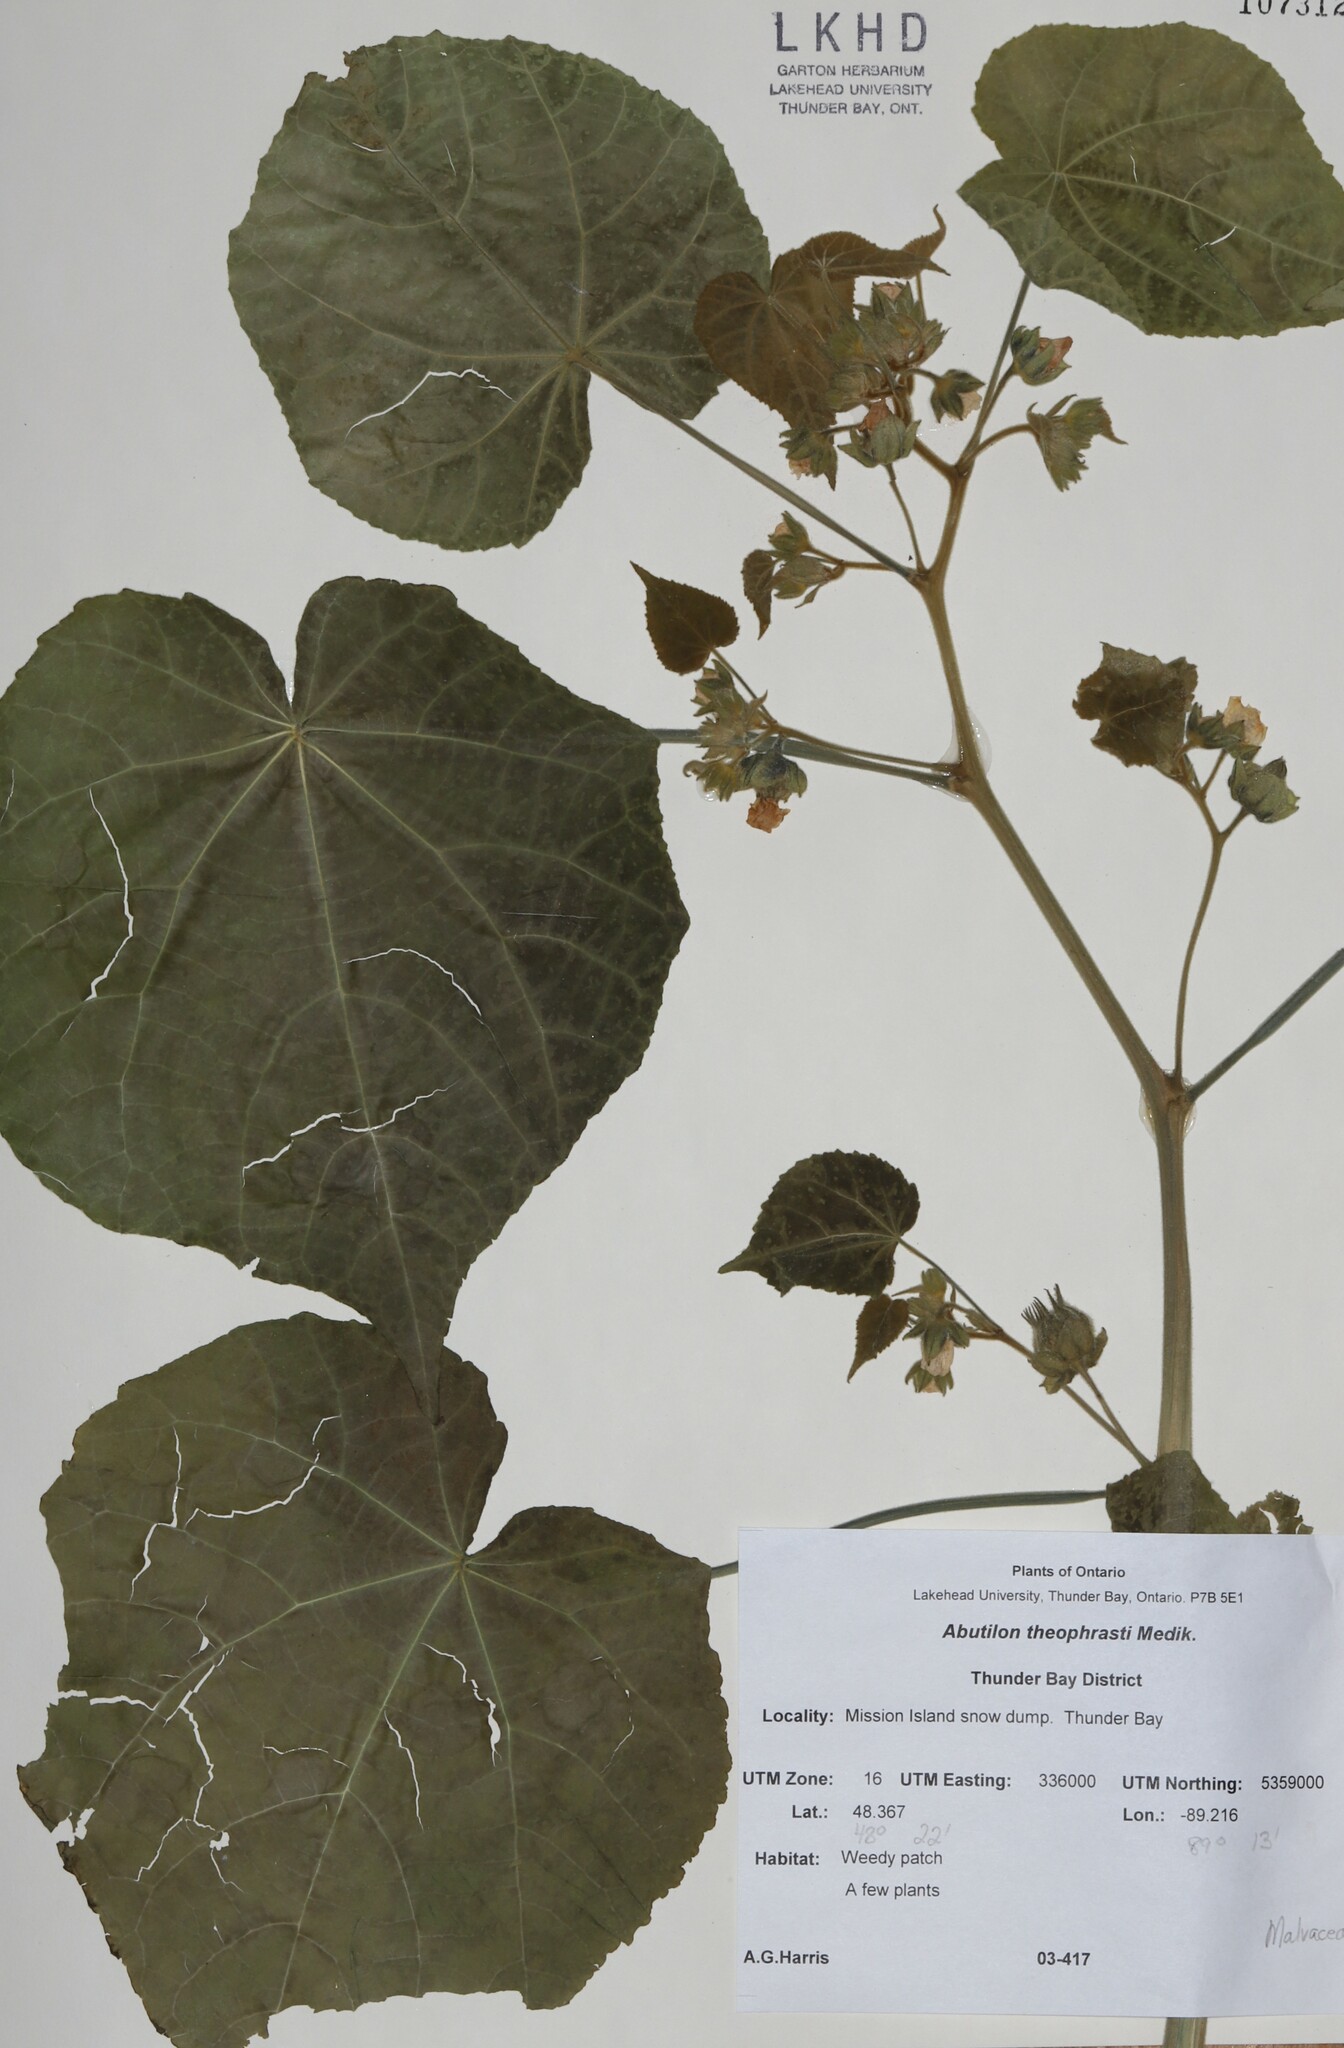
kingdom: Plantae
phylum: Tracheophyta
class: Magnoliopsida
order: Malvales
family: Malvaceae
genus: Abutilon
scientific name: Abutilon theophrasti
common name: Velvetleaf
